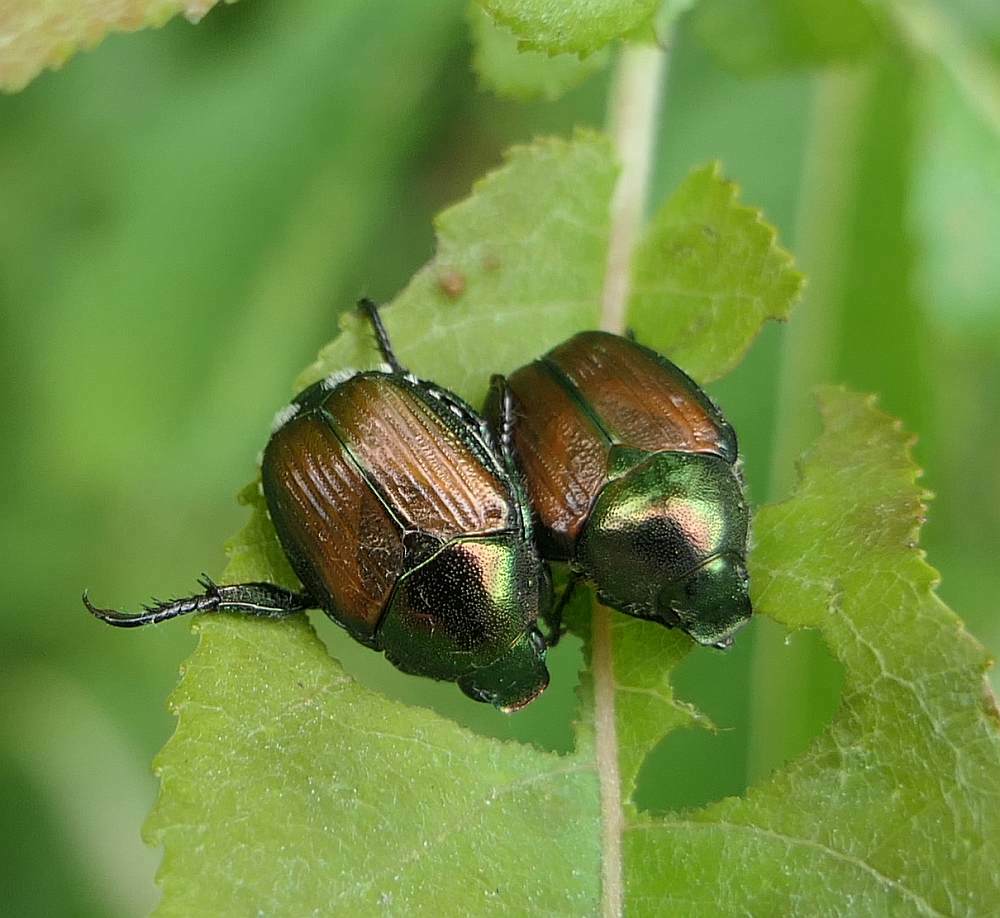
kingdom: Animalia
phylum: Arthropoda
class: Insecta
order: Coleoptera
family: Scarabaeidae
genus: Popillia
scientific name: Popillia japonica
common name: Japanese beetle
